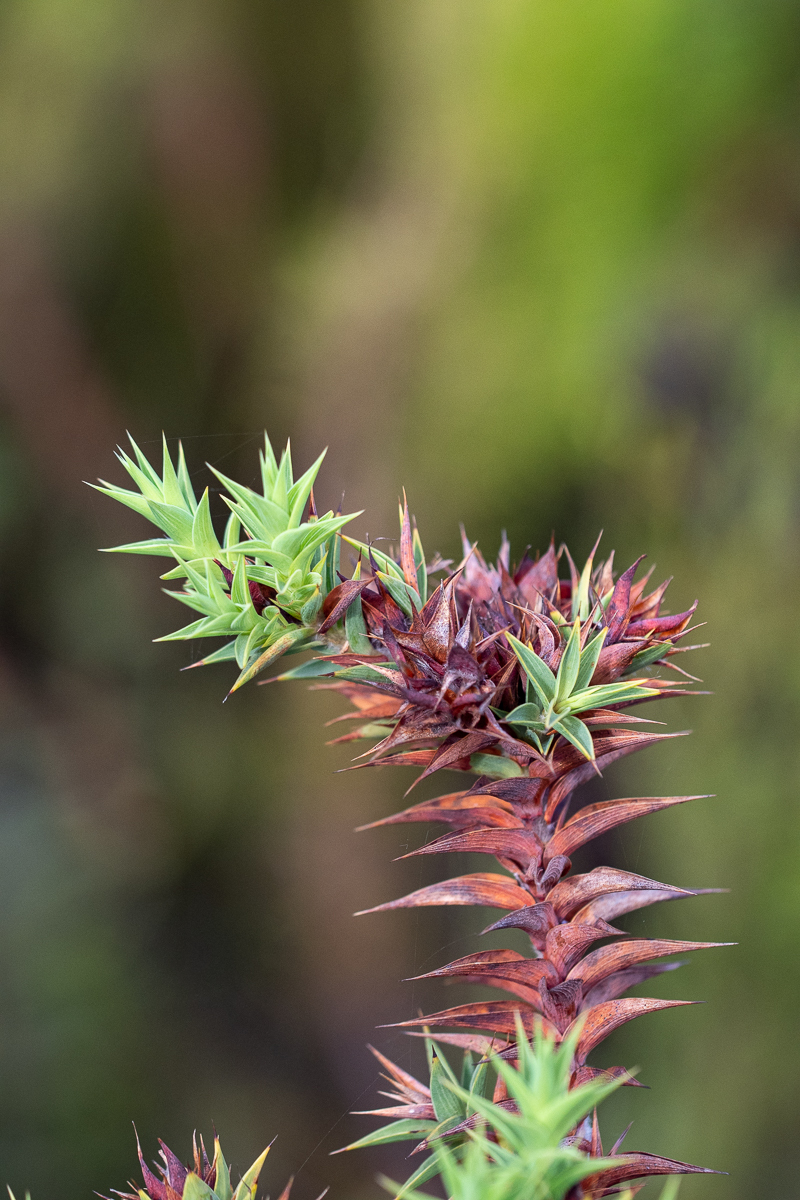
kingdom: Plantae
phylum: Tracheophyta
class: Magnoliopsida
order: Fabales
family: Fabaceae
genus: Aspalathus
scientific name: Aspalathus cordata
